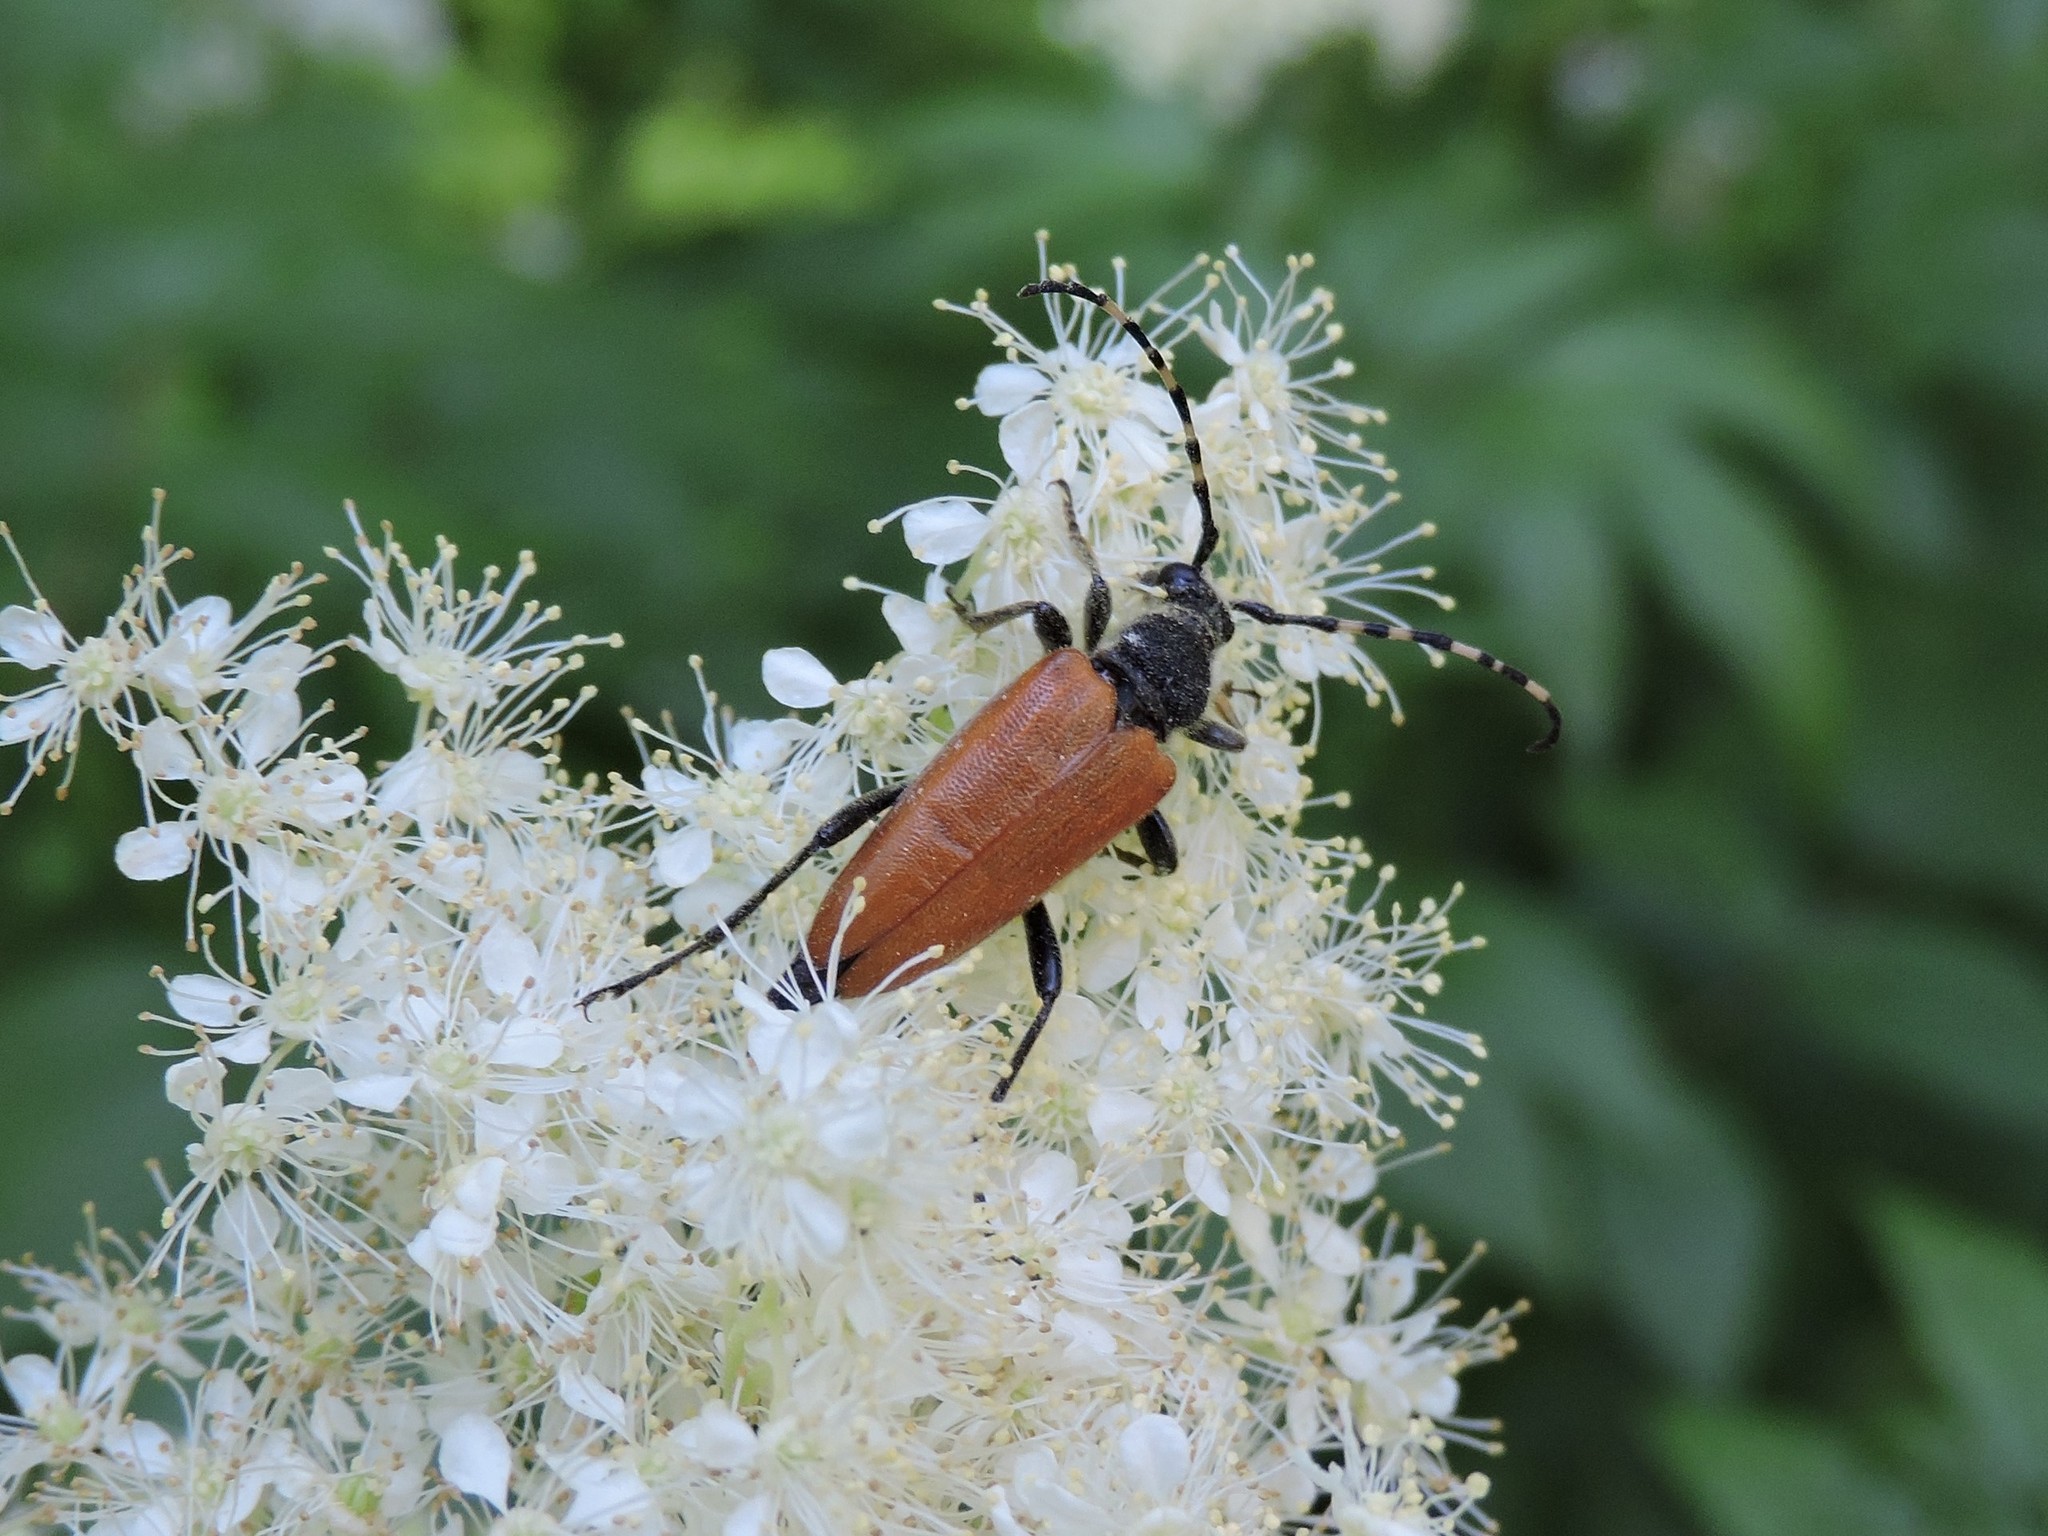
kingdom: Animalia
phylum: Arthropoda
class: Insecta
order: Coleoptera
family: Cerambycidae
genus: Stictoleptura
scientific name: Stictoleptura variicornis
